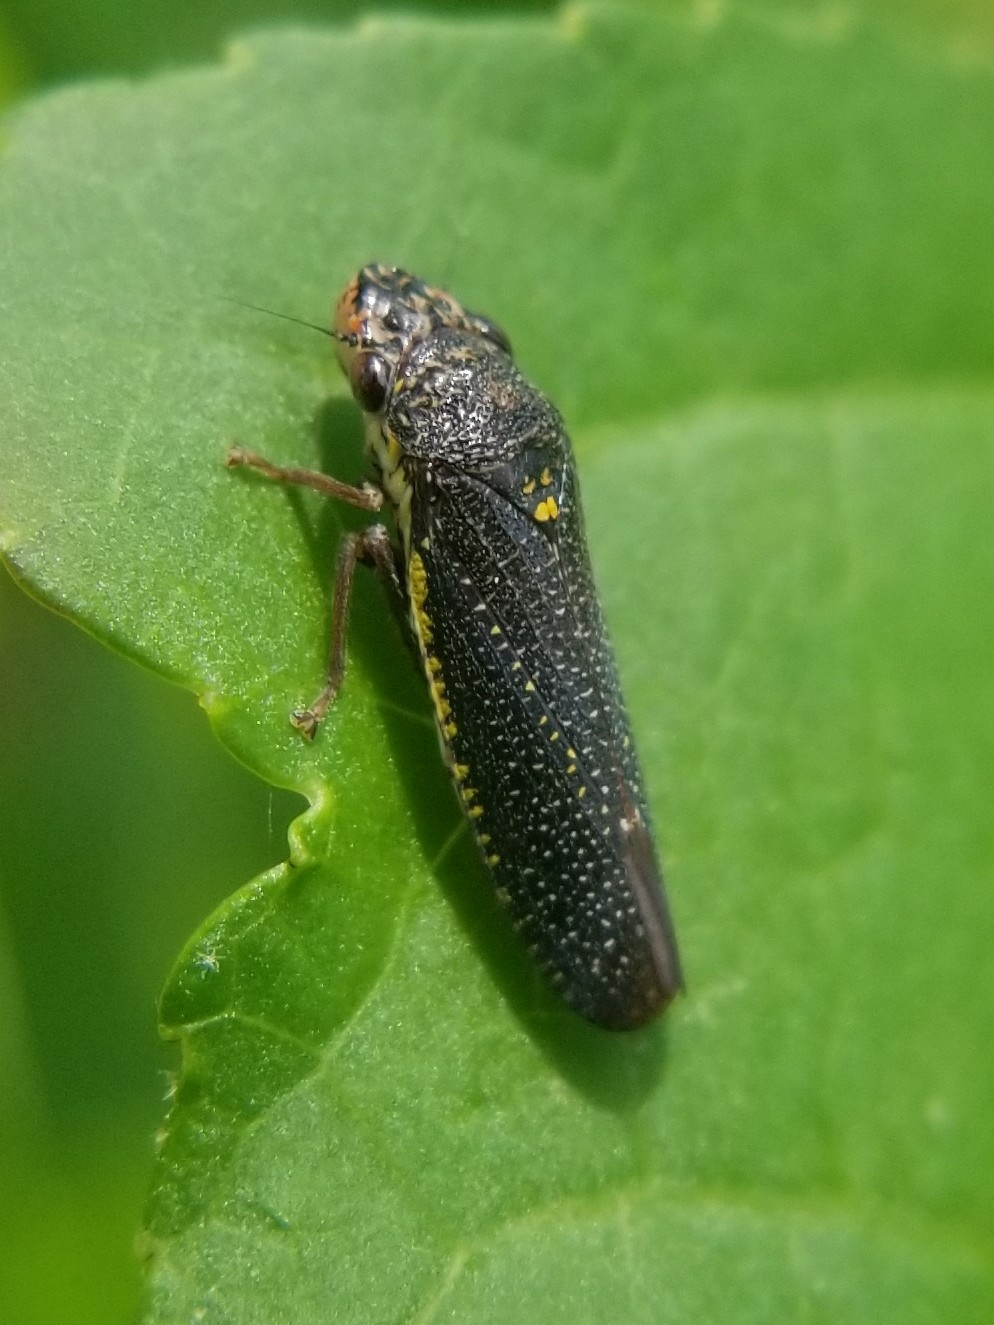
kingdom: Animalia
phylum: Arthropoda
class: Insecta
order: Hemiptera
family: Cicadellidae
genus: Paraulacizes
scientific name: Paraulacizes irrorata
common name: Speckled sharpshooter
